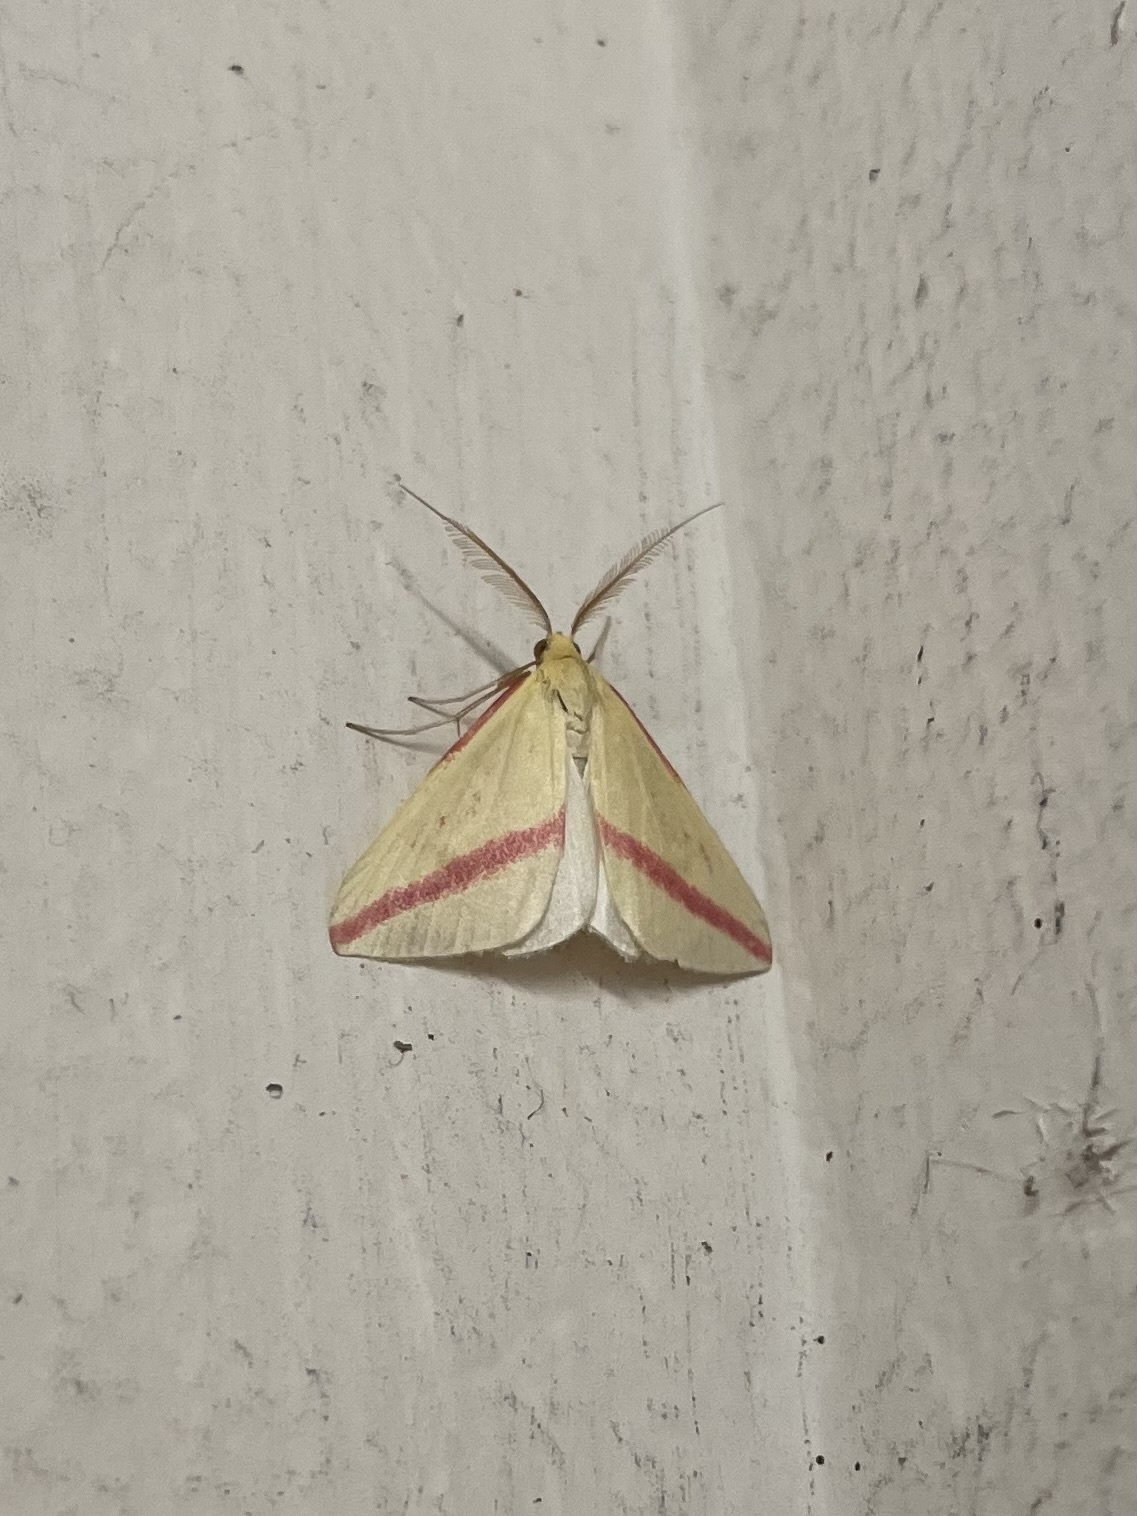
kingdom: Animalia
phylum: Arthropoda
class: Insecta
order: Lepidoptera
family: Geometridae
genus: Rhodometra
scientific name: Rhodometra sacraria
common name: Vestal
